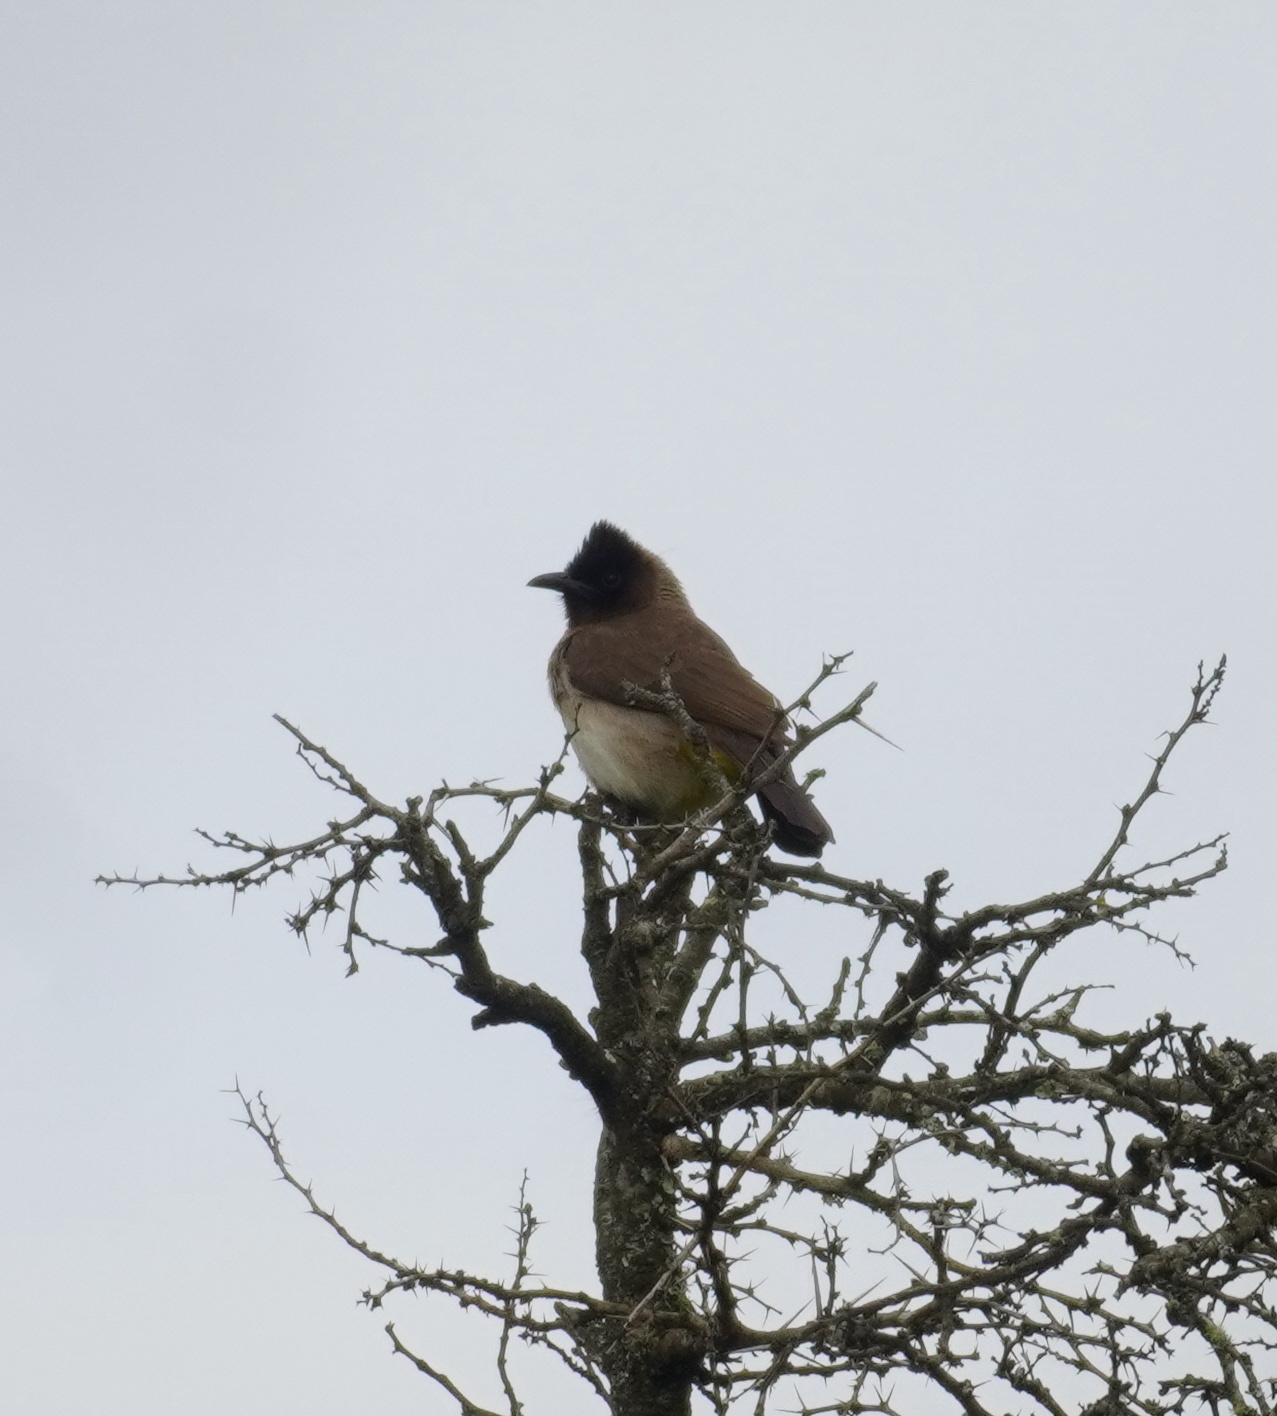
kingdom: Animalia
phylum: Chordata
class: Aves
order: Passeriformes
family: Pycnonotidae
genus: Pycnonotus
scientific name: Pycnonotus barbatus
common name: Common bulbul
